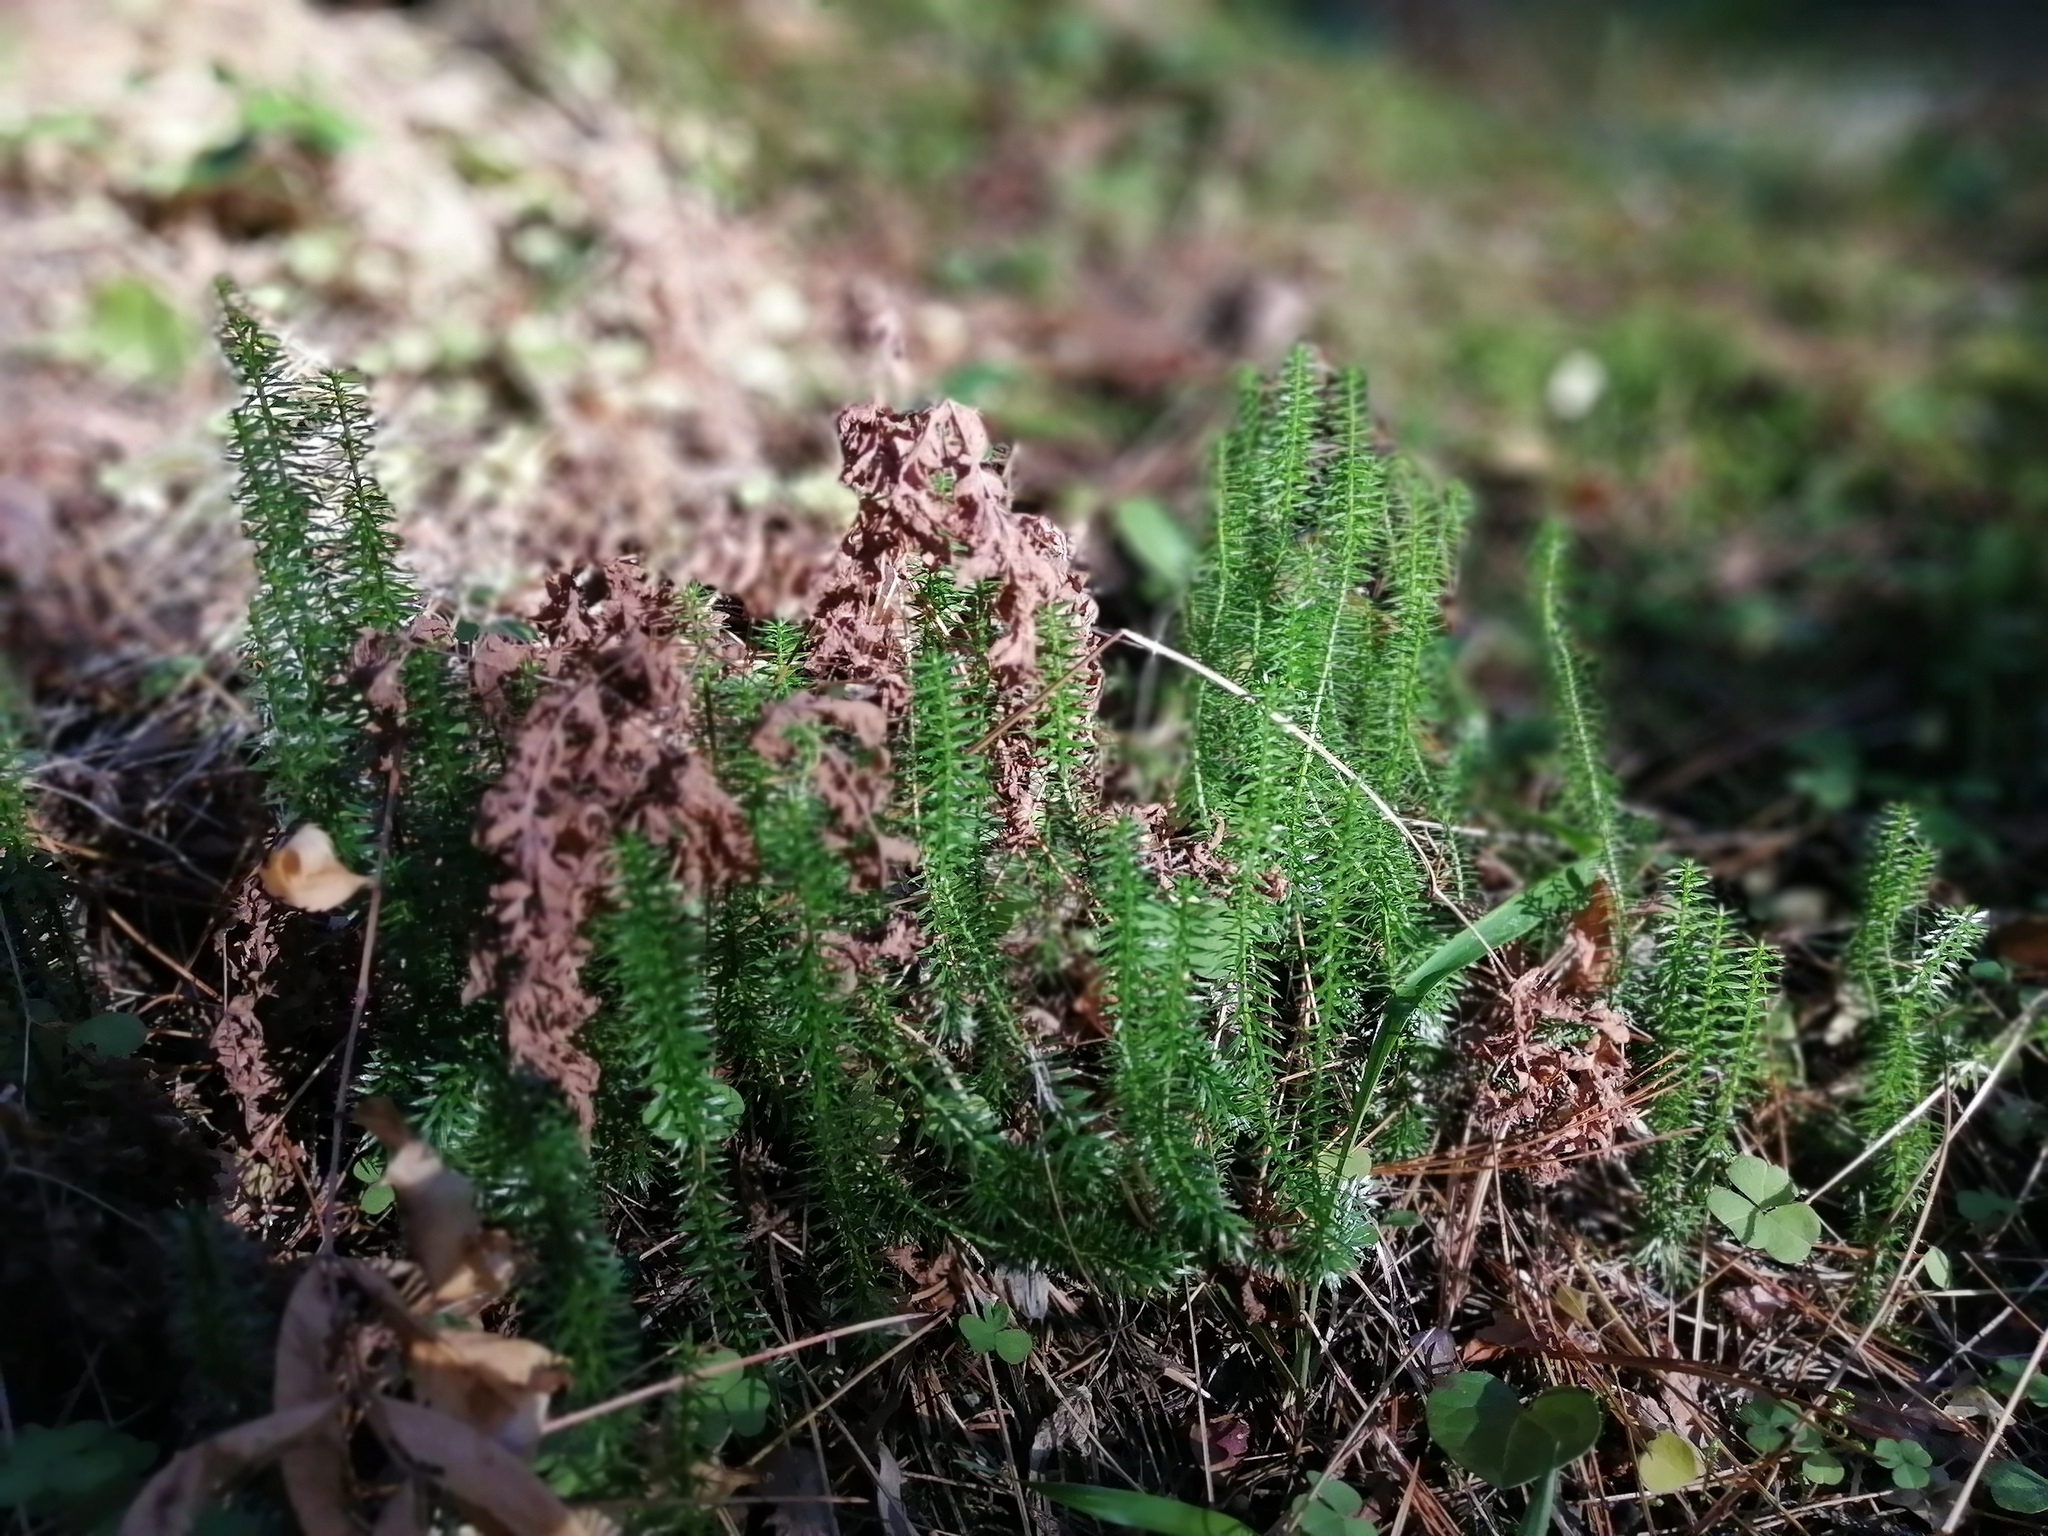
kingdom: Plantae
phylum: Tracheophyta
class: Lycopodiopsida
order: Lycopodiales
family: Lycopodiaceae
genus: Spinulum
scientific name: Spinulum annotinum
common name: Interrupted club-moss
